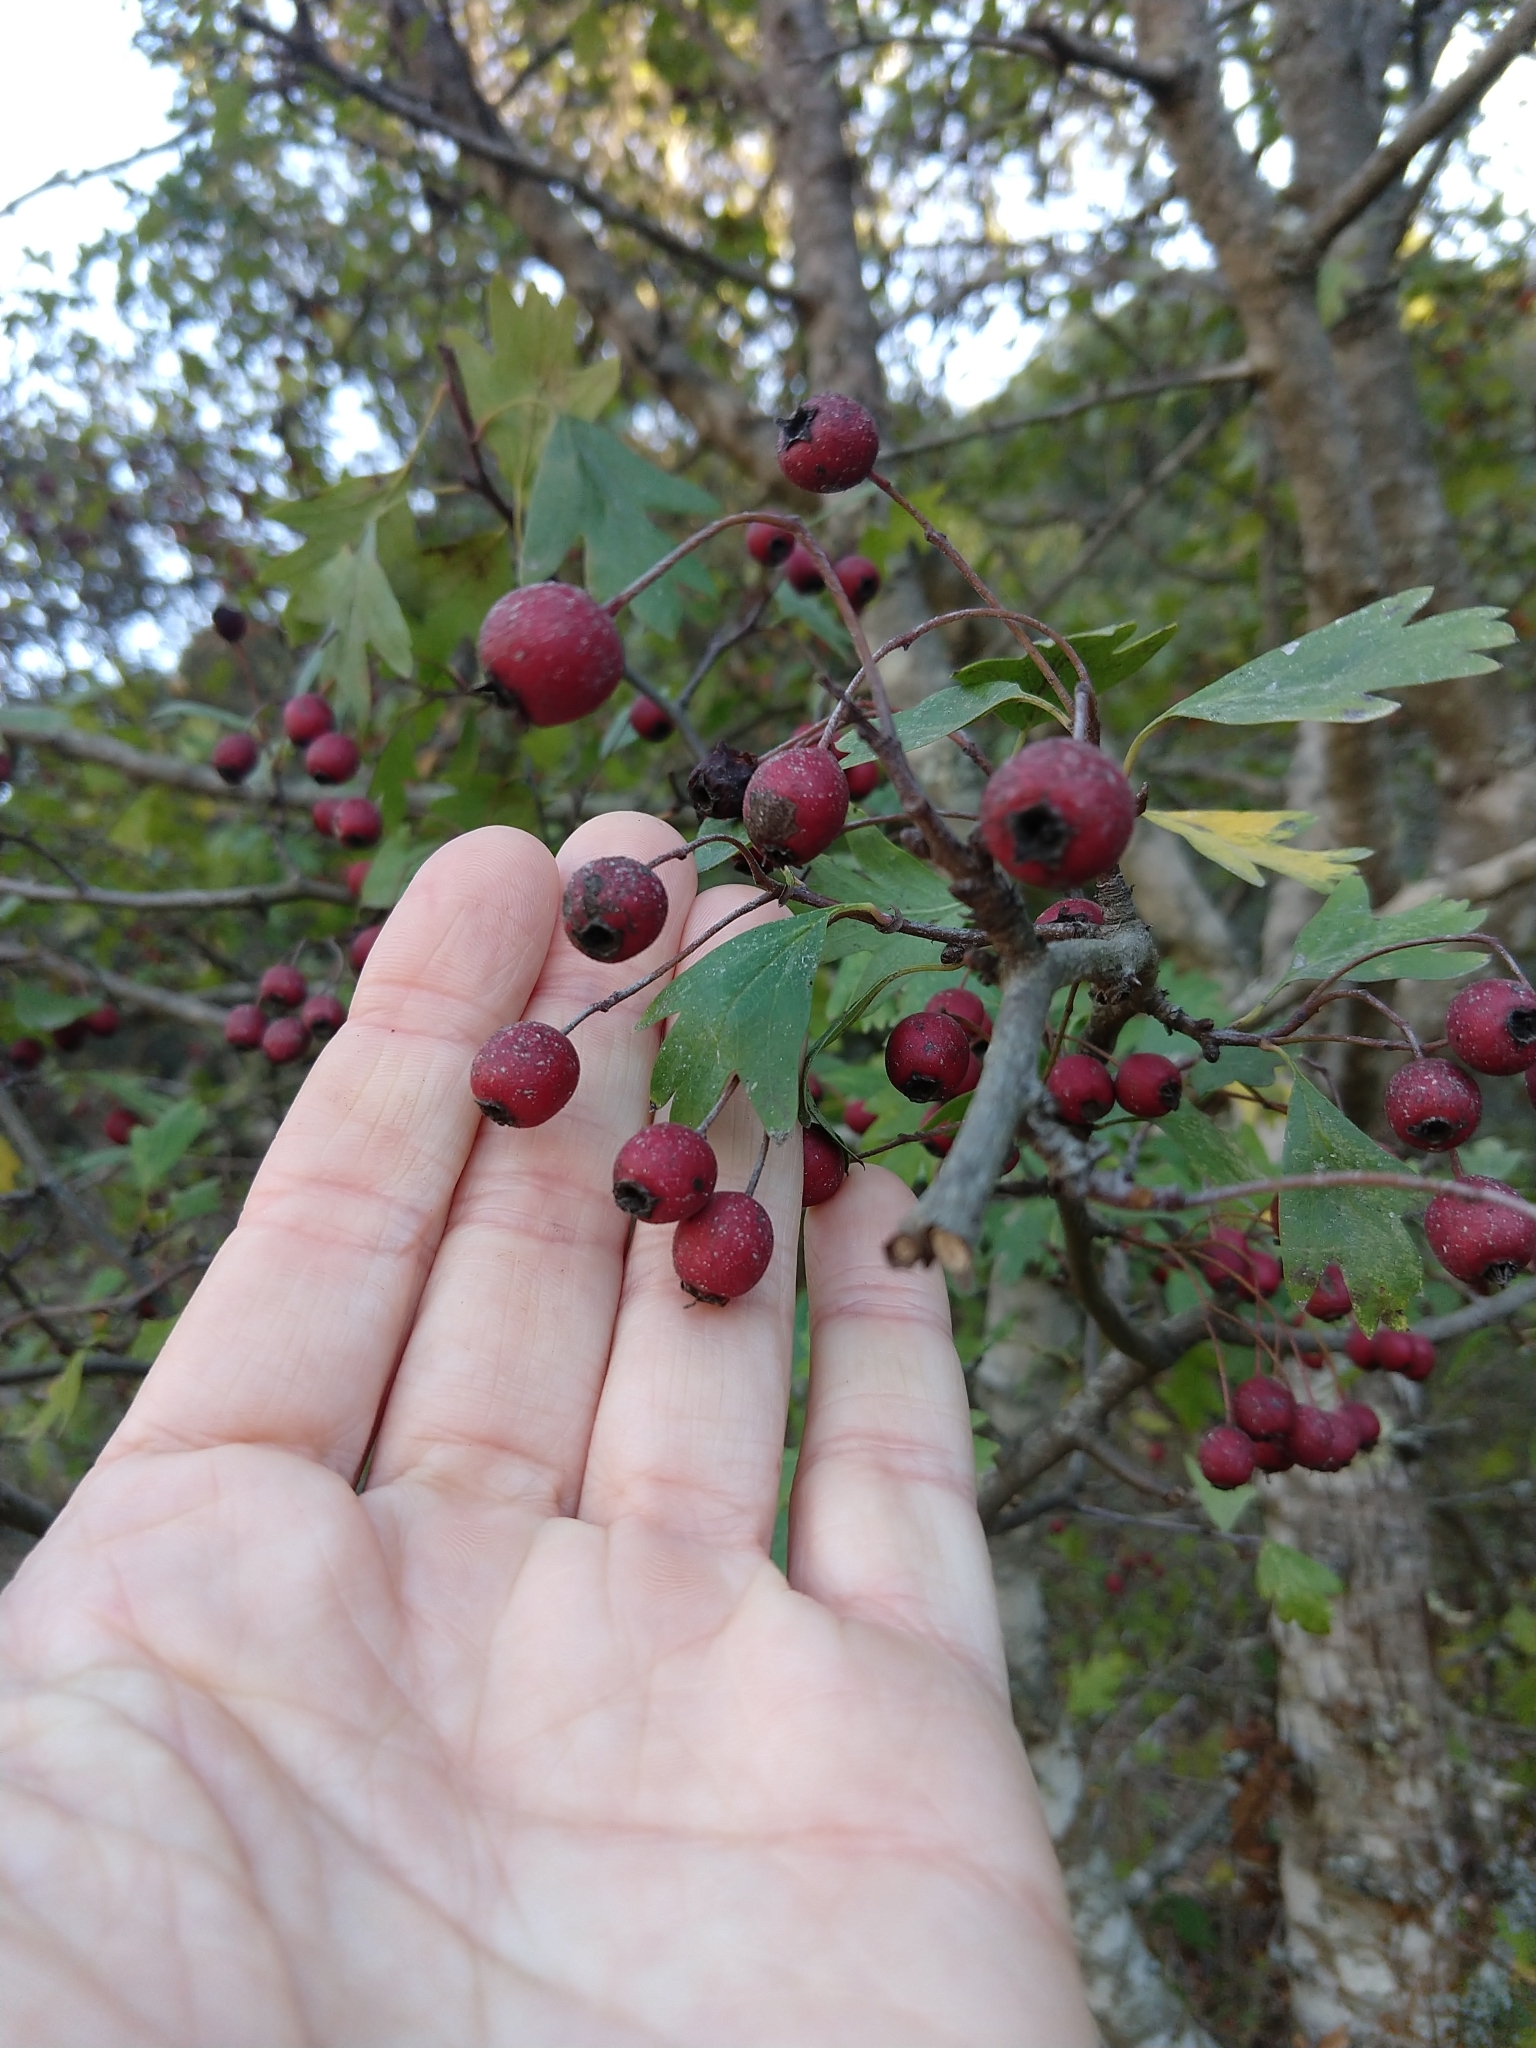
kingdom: Plantae
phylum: Tracheophyta
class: Magnoliopsida
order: Rosales
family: Rosaceae
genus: Crataegus
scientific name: Crataegus monogyna
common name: Hawthorn
